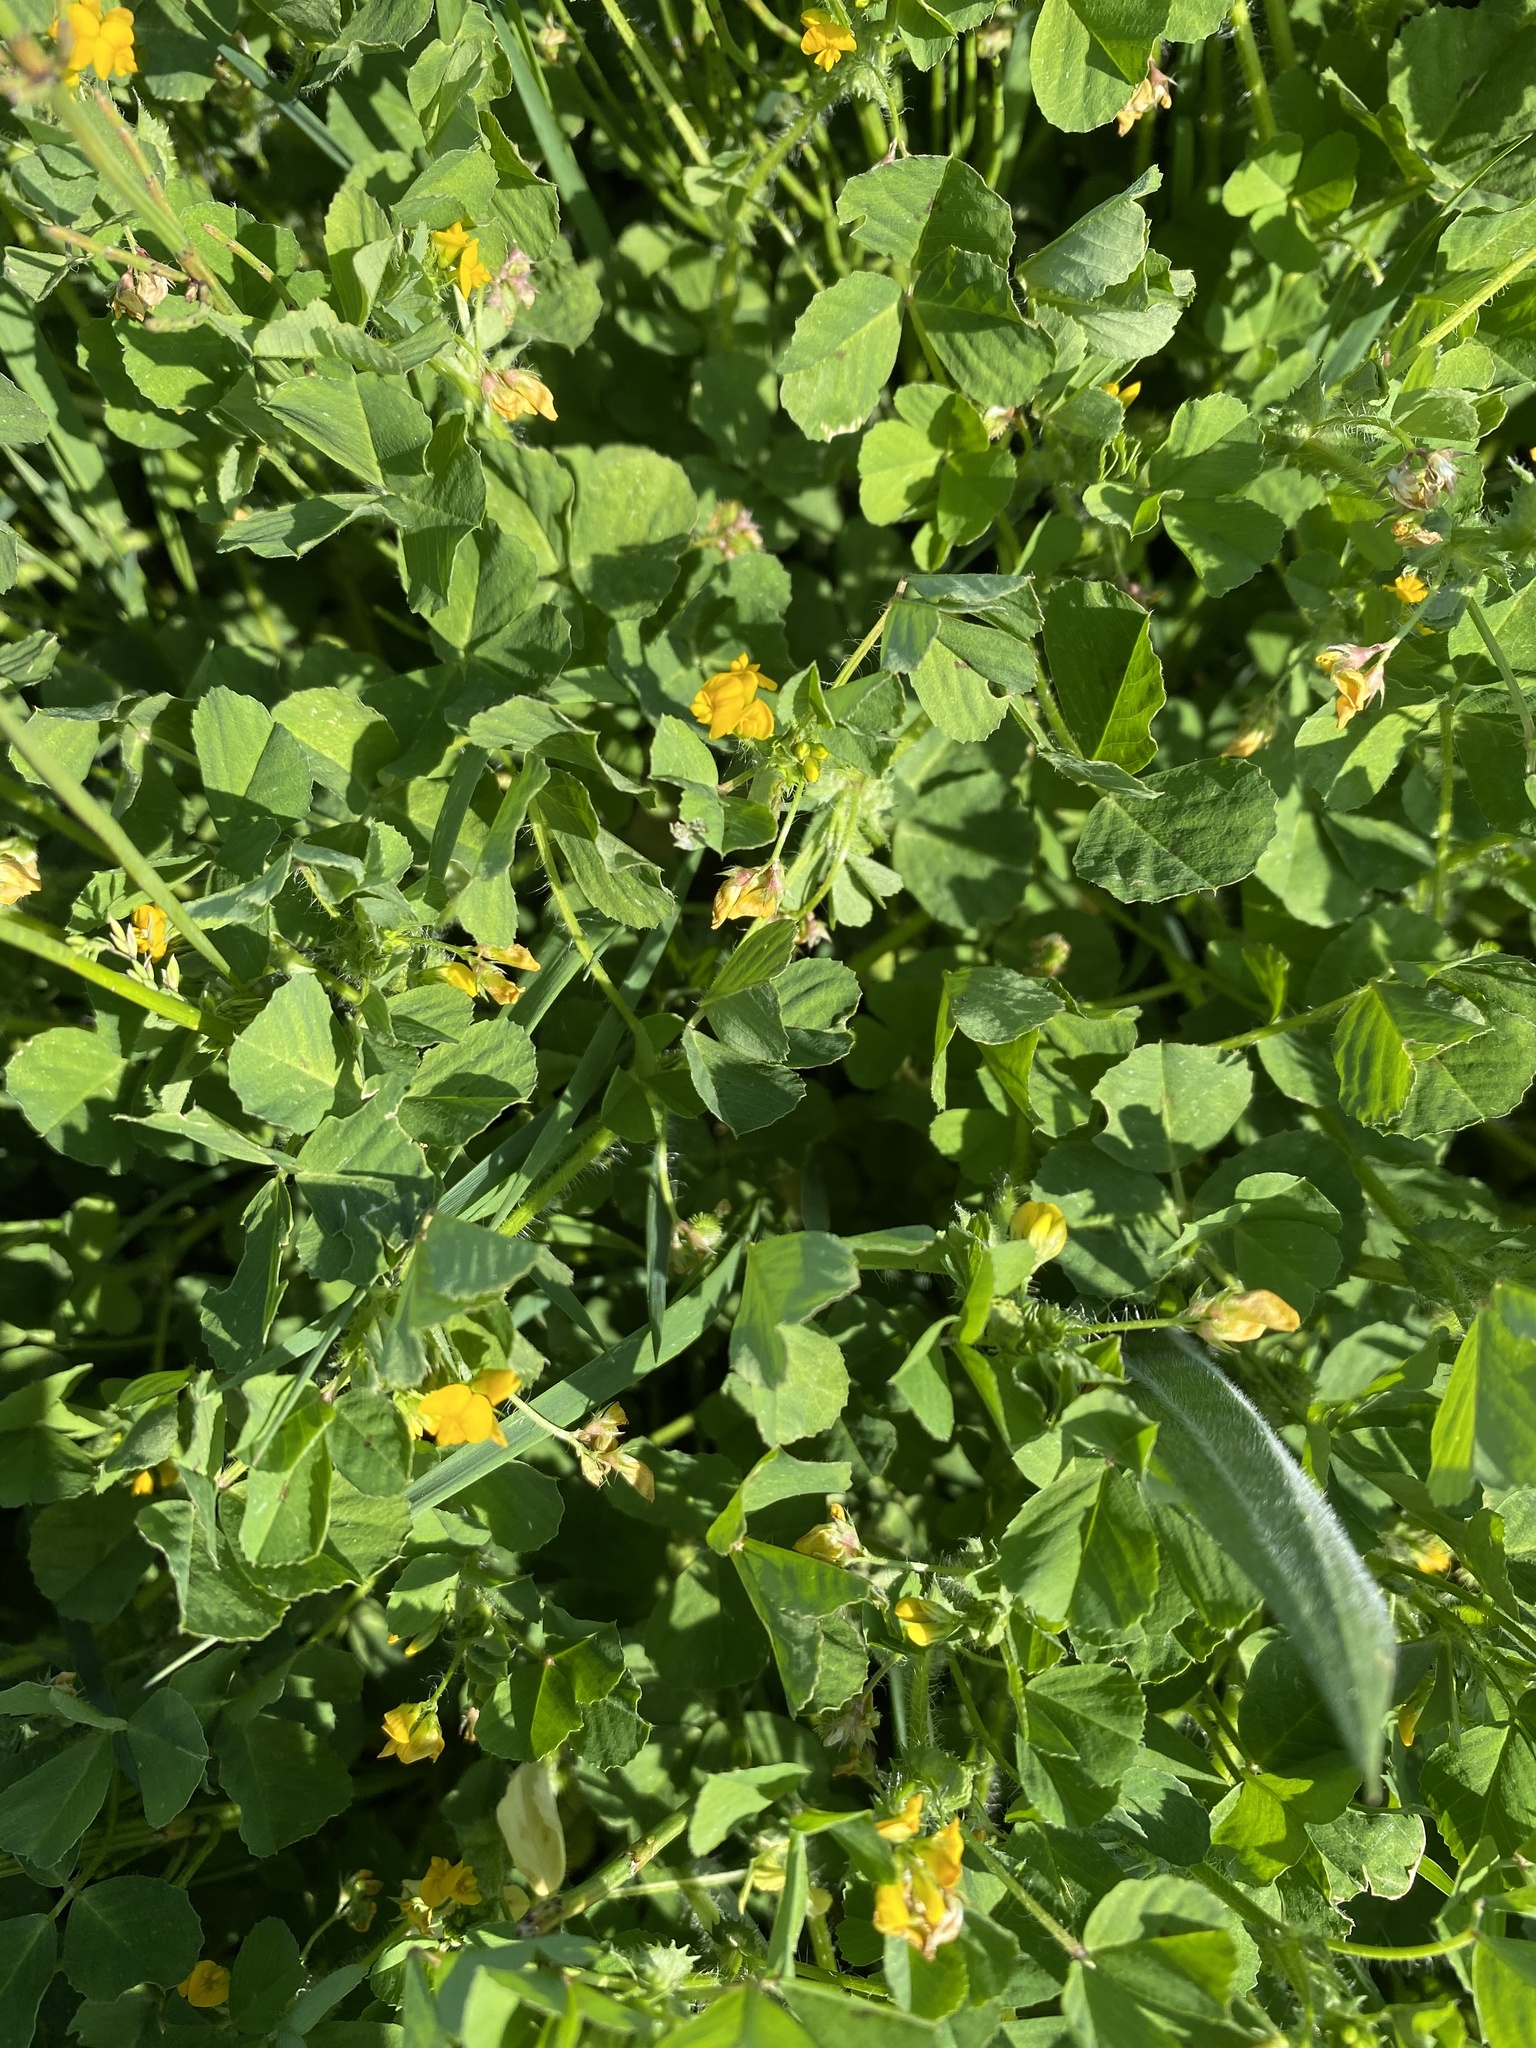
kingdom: Plantae
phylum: Tracheophyta
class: Magnoliopsida
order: Fabales
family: Fabaceae
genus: Medicago
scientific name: Medicago arabica
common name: Spotted medick
